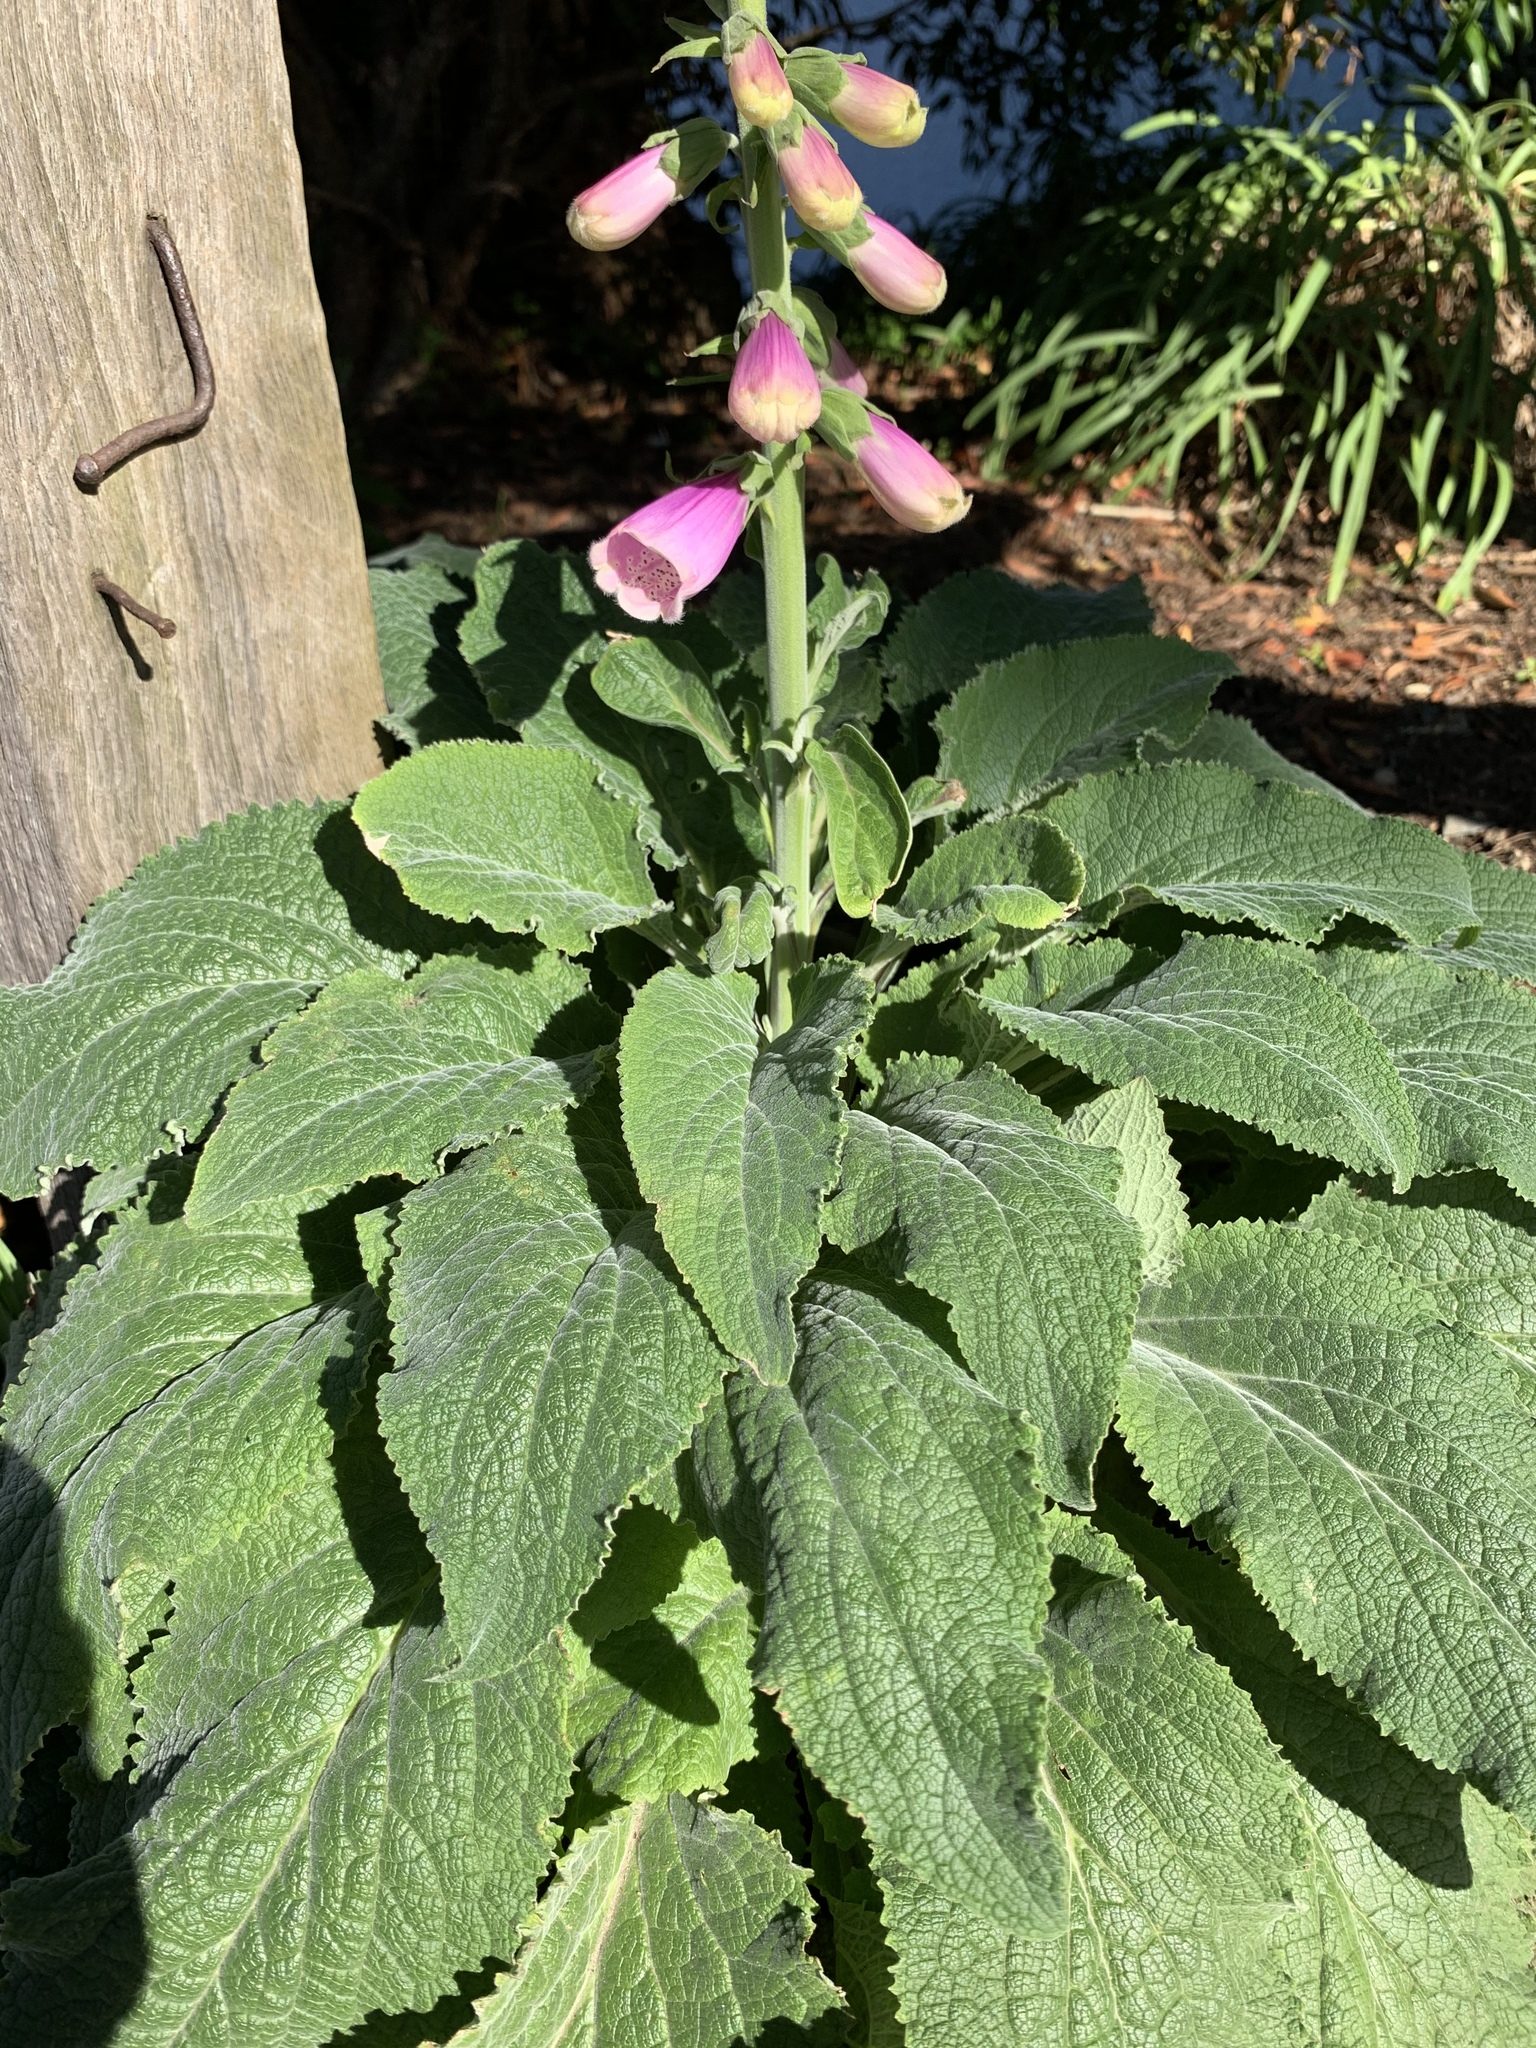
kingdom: Plantae
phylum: Tracheophyta
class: Magnoliopsida
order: Lamiales
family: Plantaginaceae
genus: Digitalis
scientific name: Digitalis purpurea
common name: Foxglove
